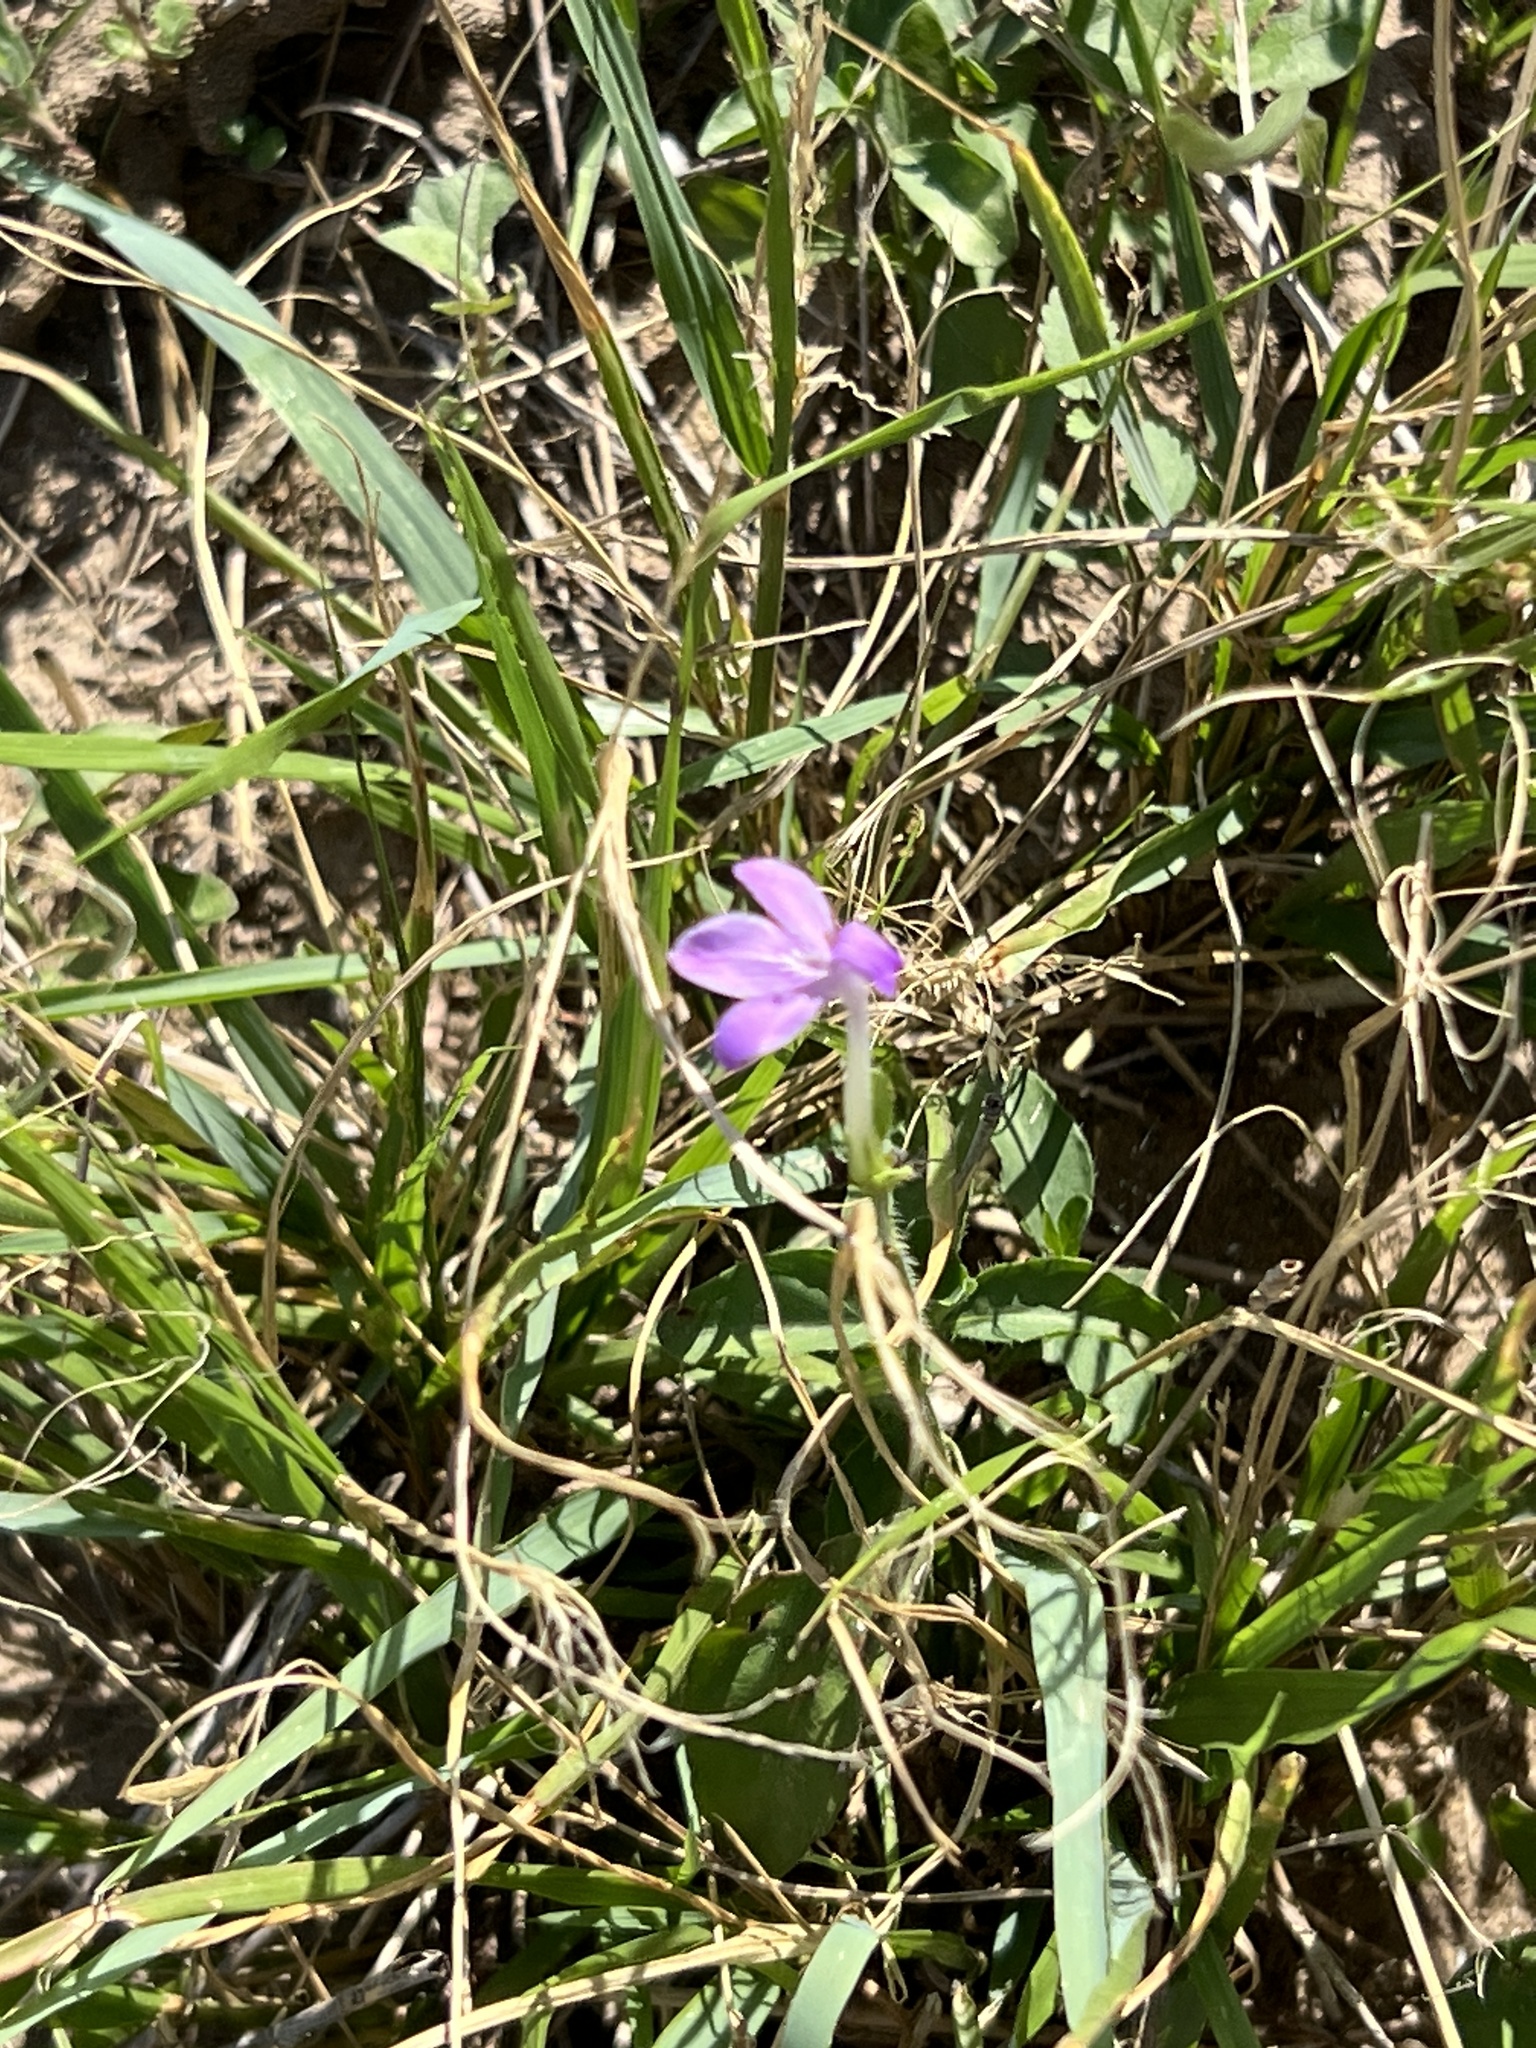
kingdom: Plantae
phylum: Tracheophyta
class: Magnoliopsida
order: Lamiales
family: Acanthaceae
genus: Justicia
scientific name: Justicia pilosella
